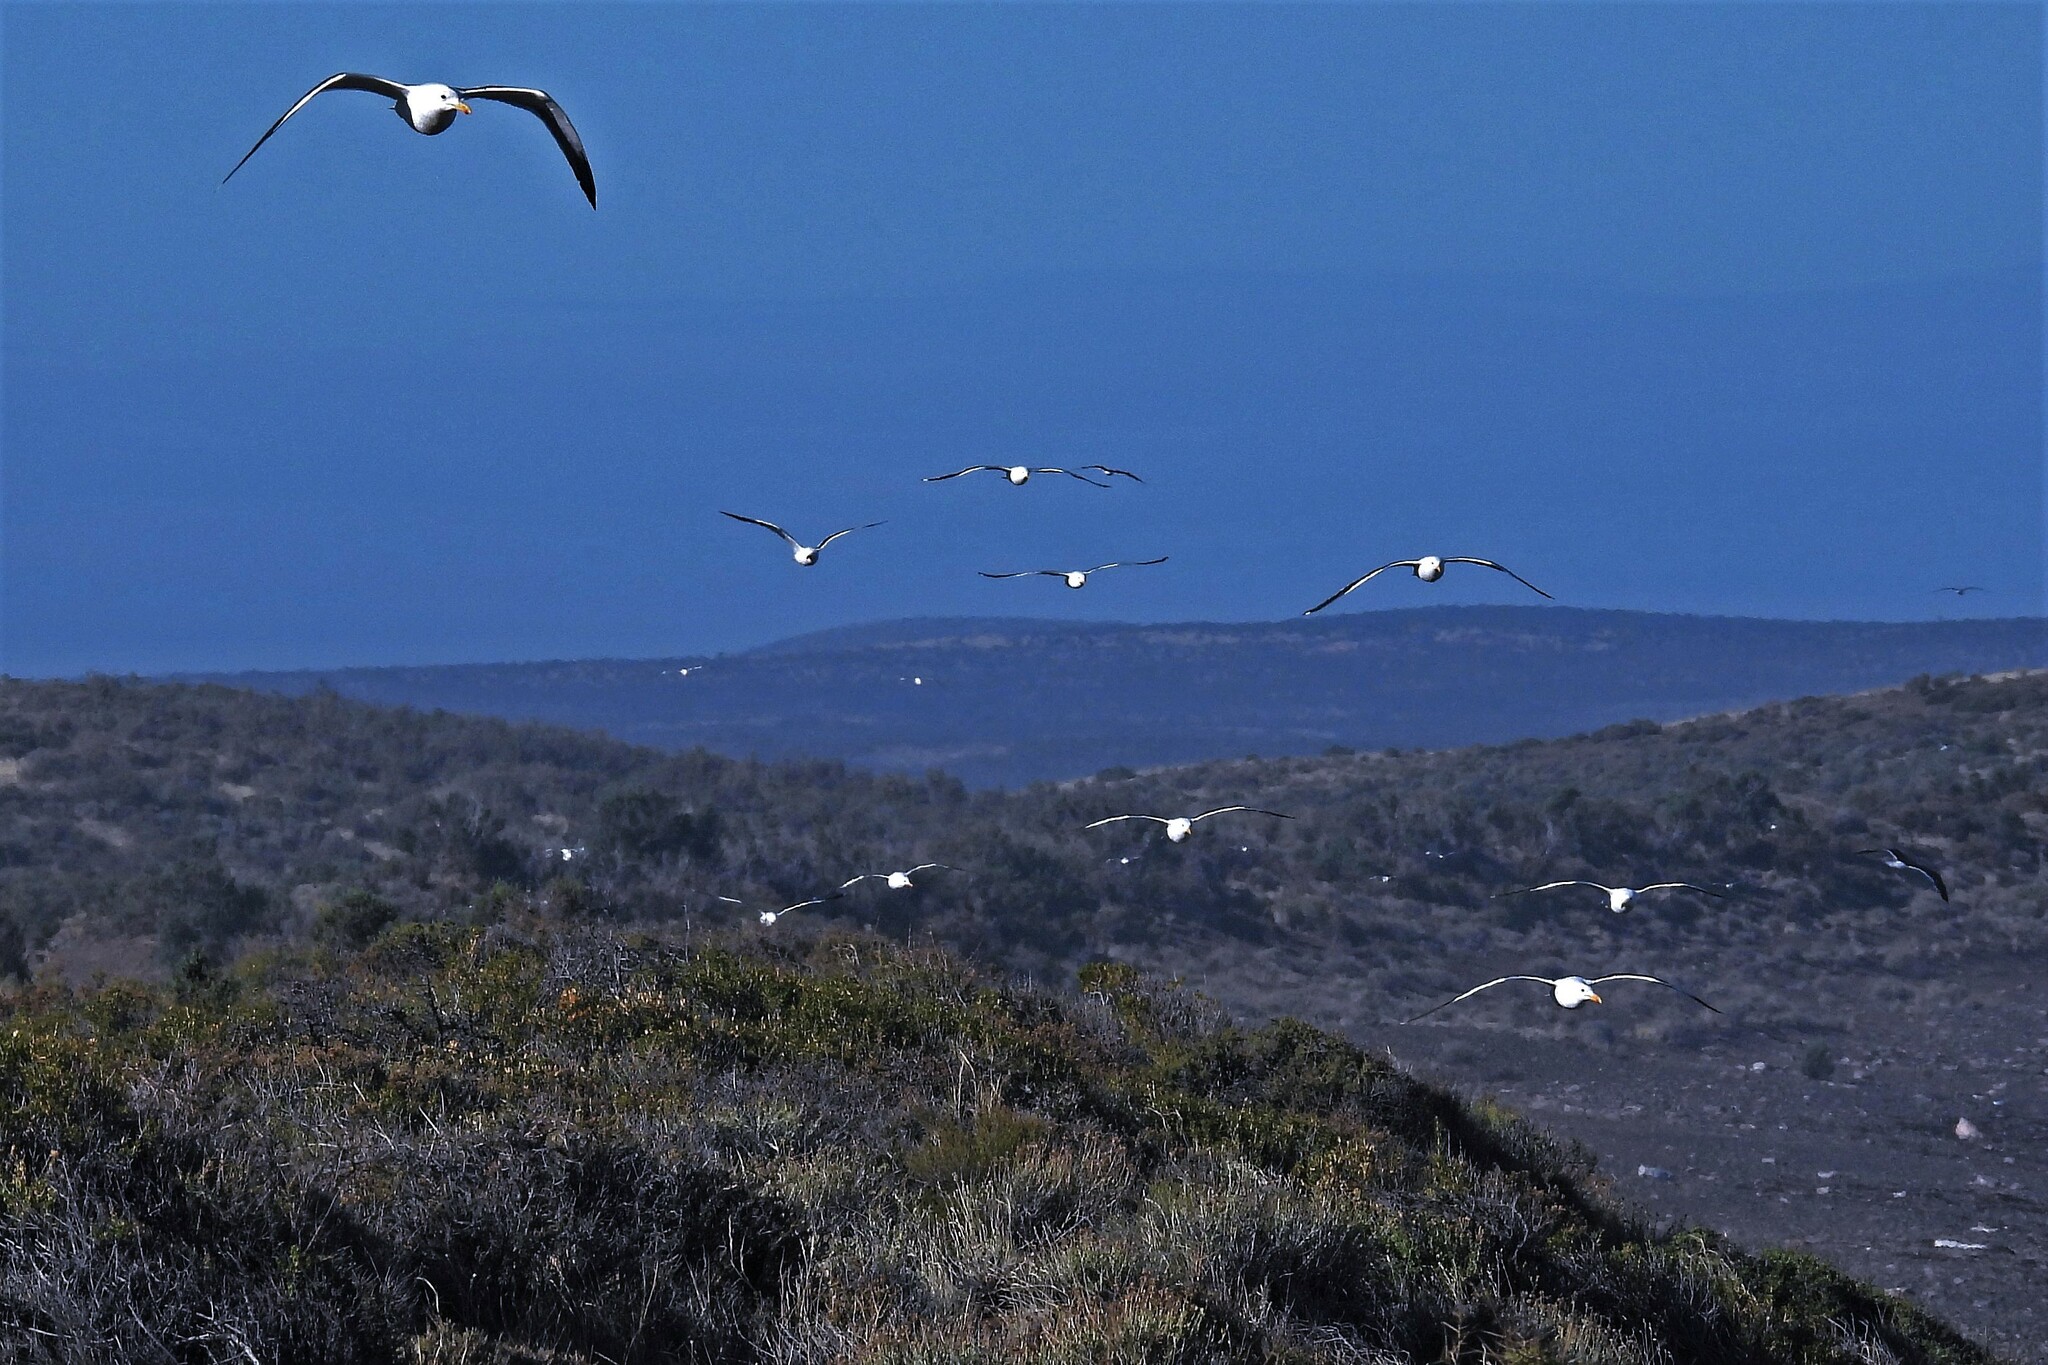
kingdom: Animalia
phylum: Chordata
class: Aves
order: Charadriiformes
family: Laridae
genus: Larus
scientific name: Larus dominicanus
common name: Kelp gull
